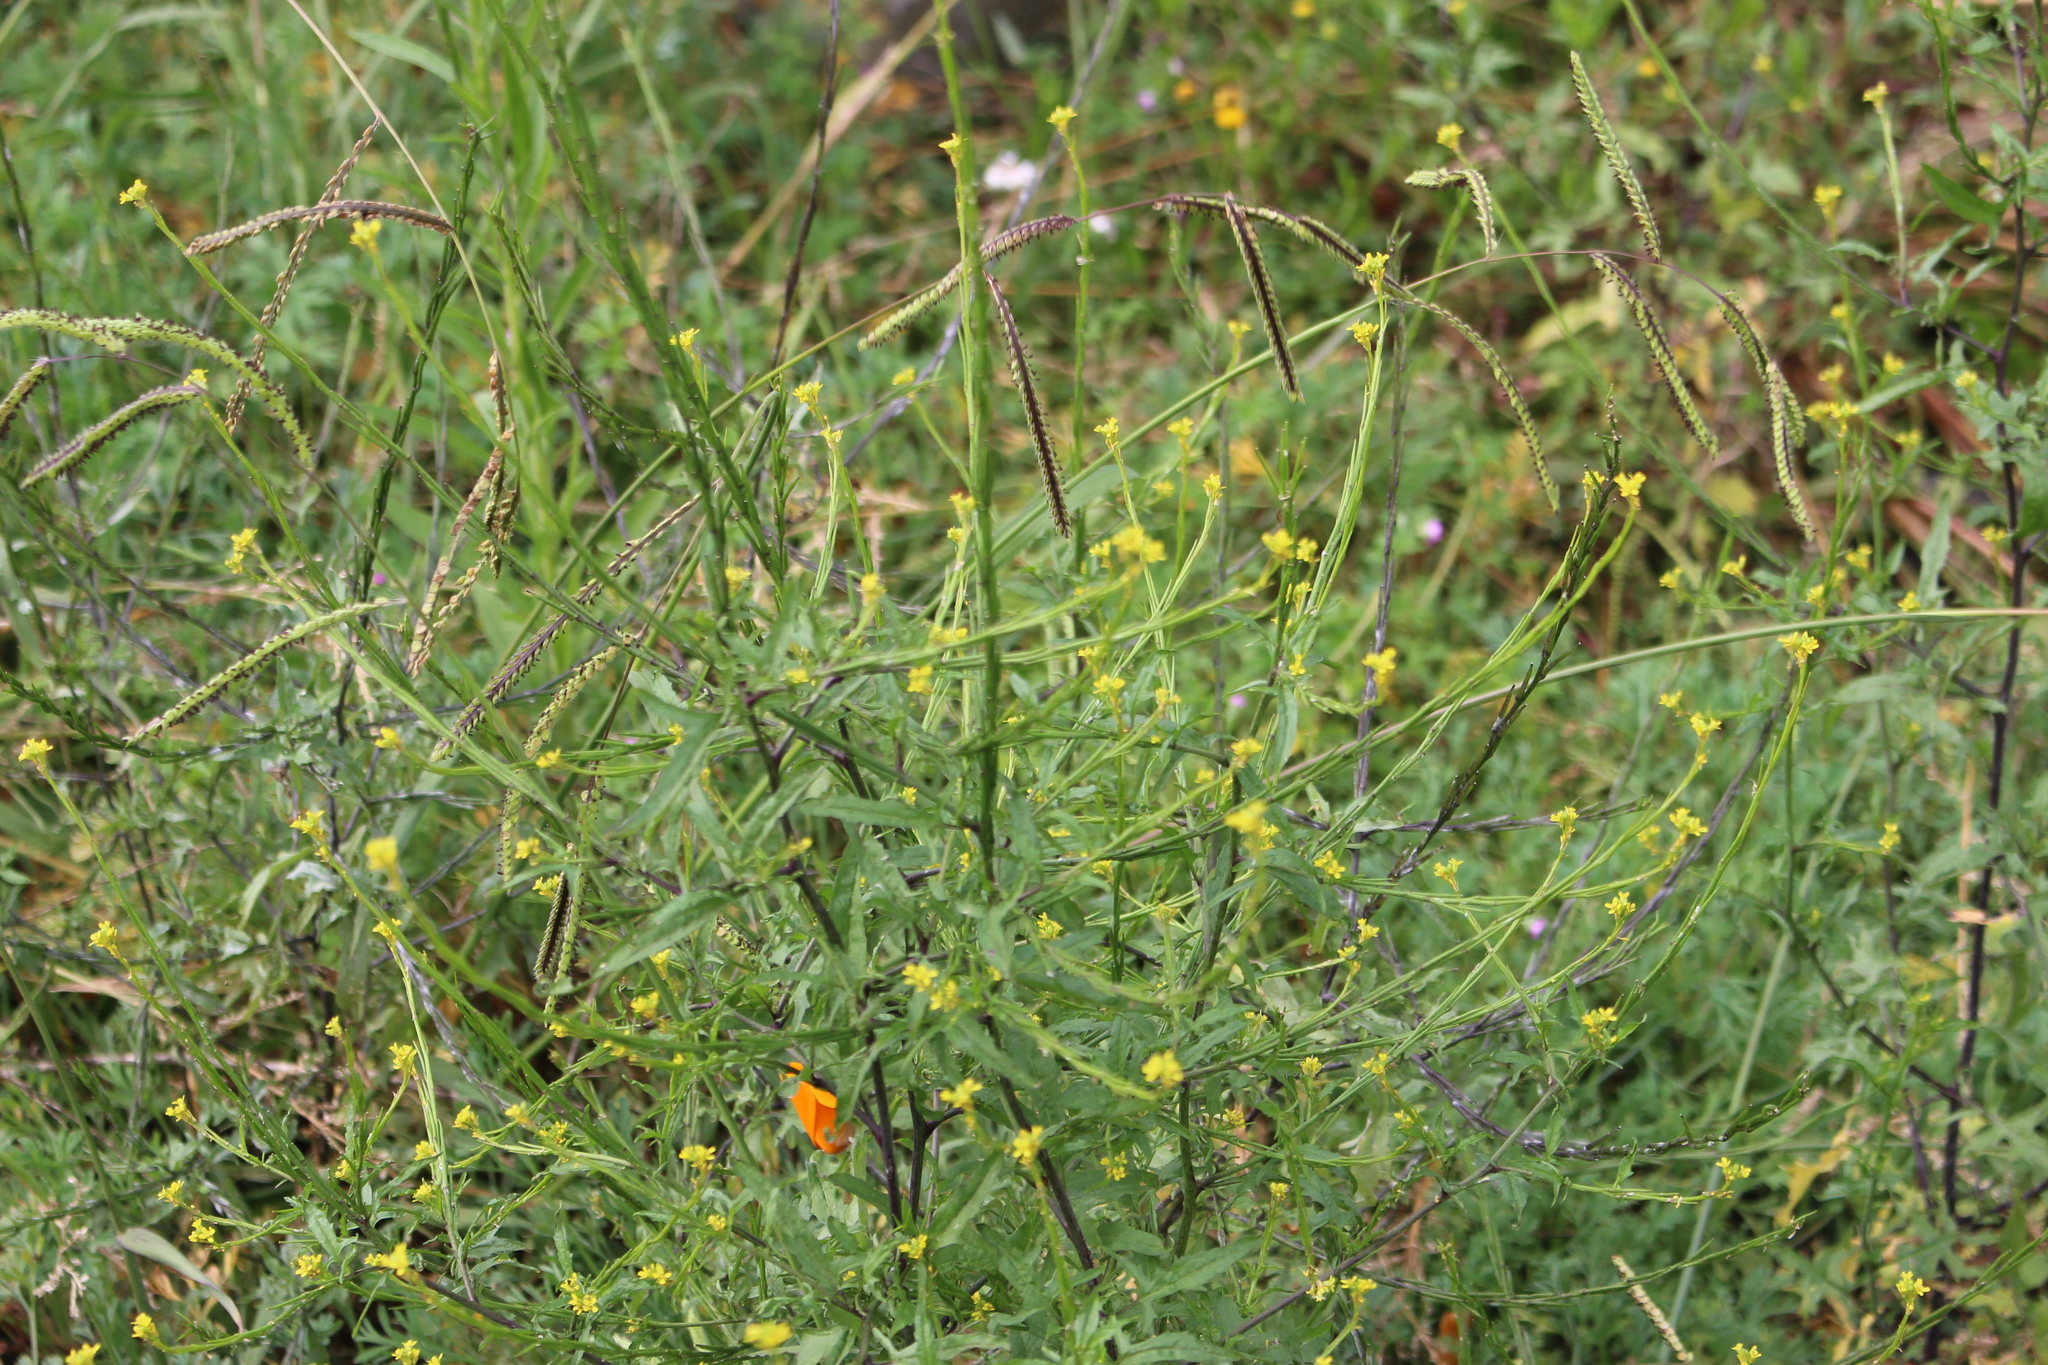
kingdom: Plantae
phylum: Tracheophyta
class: Magnoliopsida
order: Brassicales
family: Brassicaceae
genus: Sisymbrium
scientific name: Sisymbrium officinale
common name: Hedge mustard
